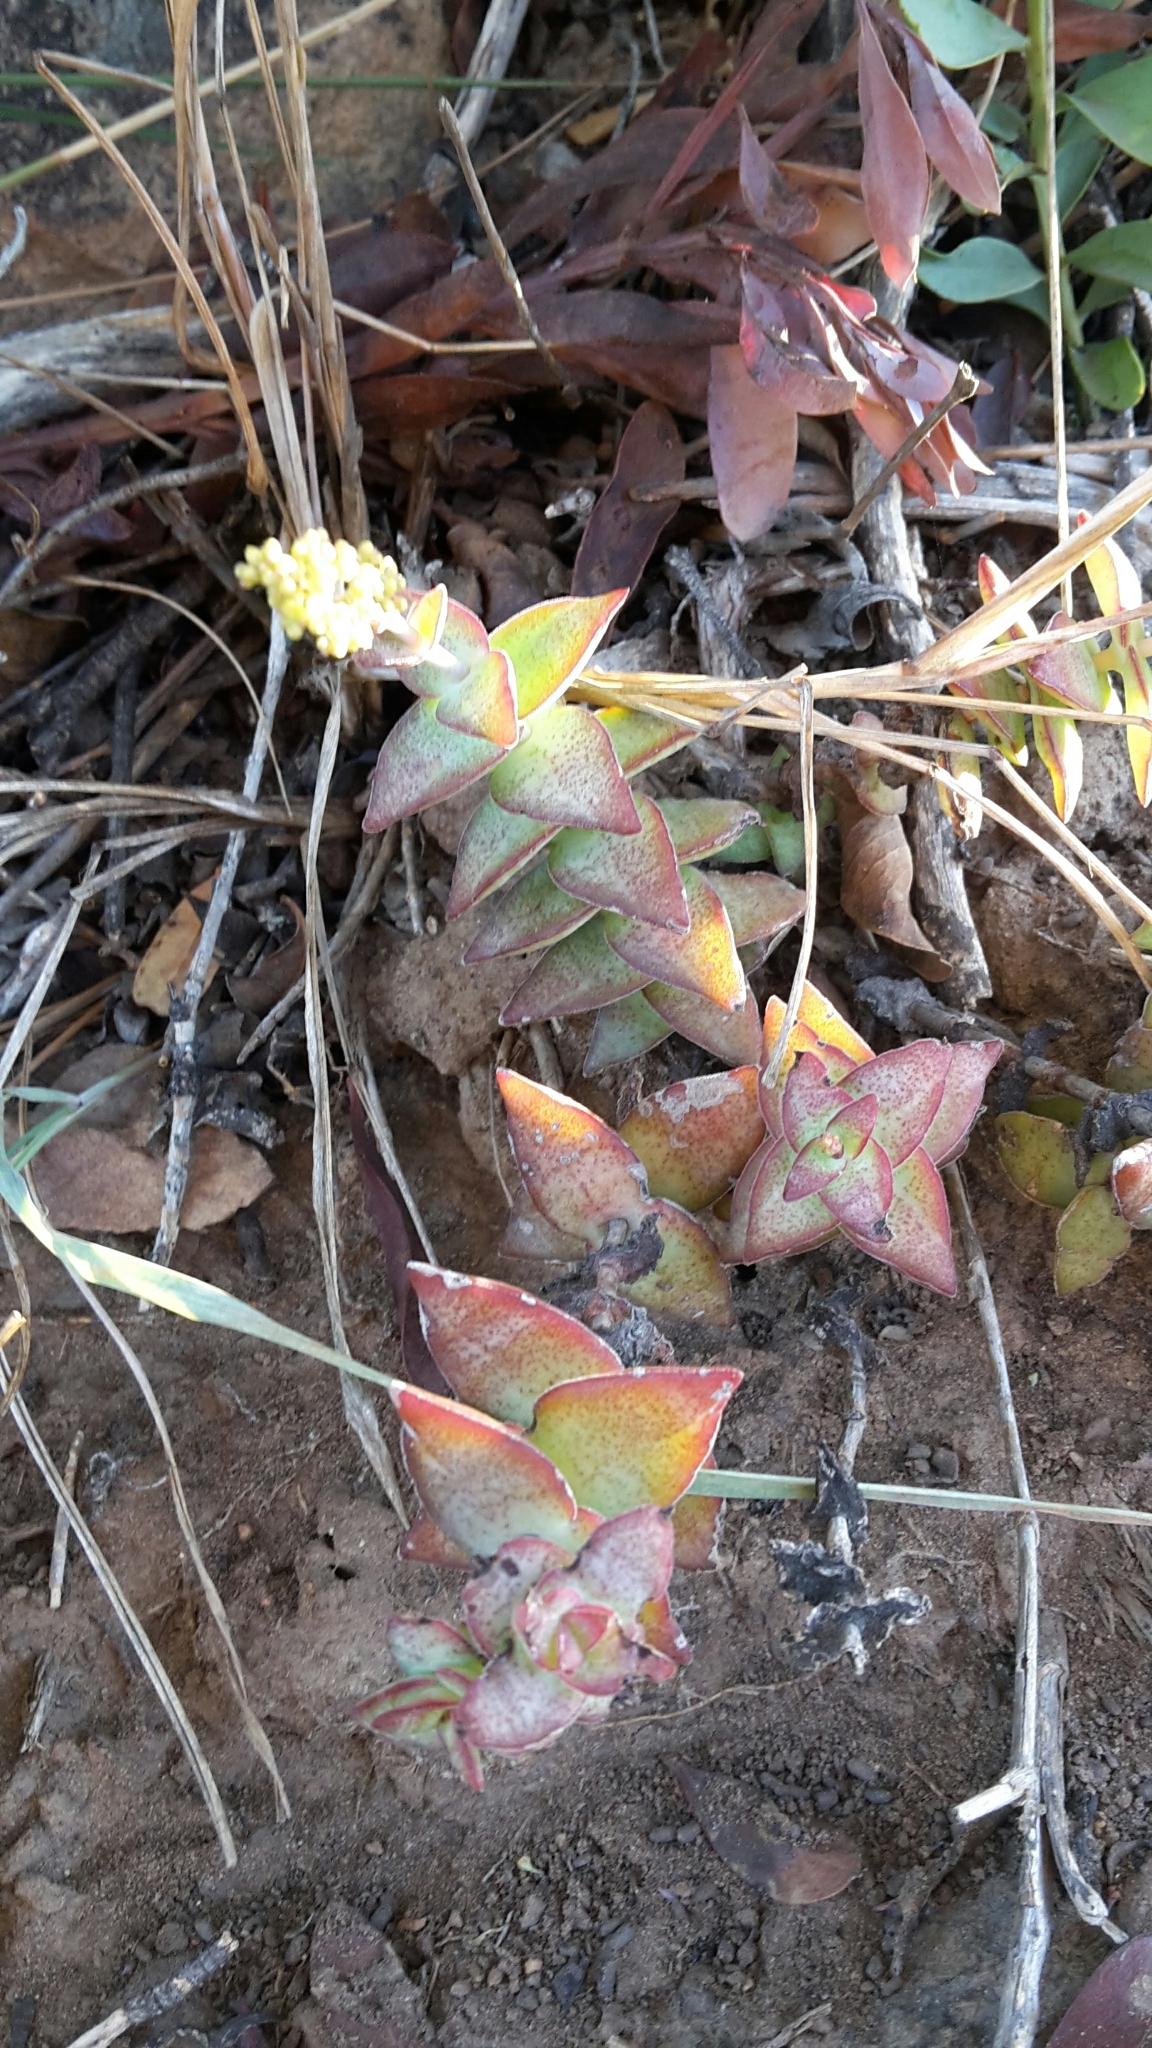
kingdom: Plantae
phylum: Tracheophyta
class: Magnoliopsida
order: Saxifragales
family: Crassulaceae
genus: Crassula
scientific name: Crassula perforata
